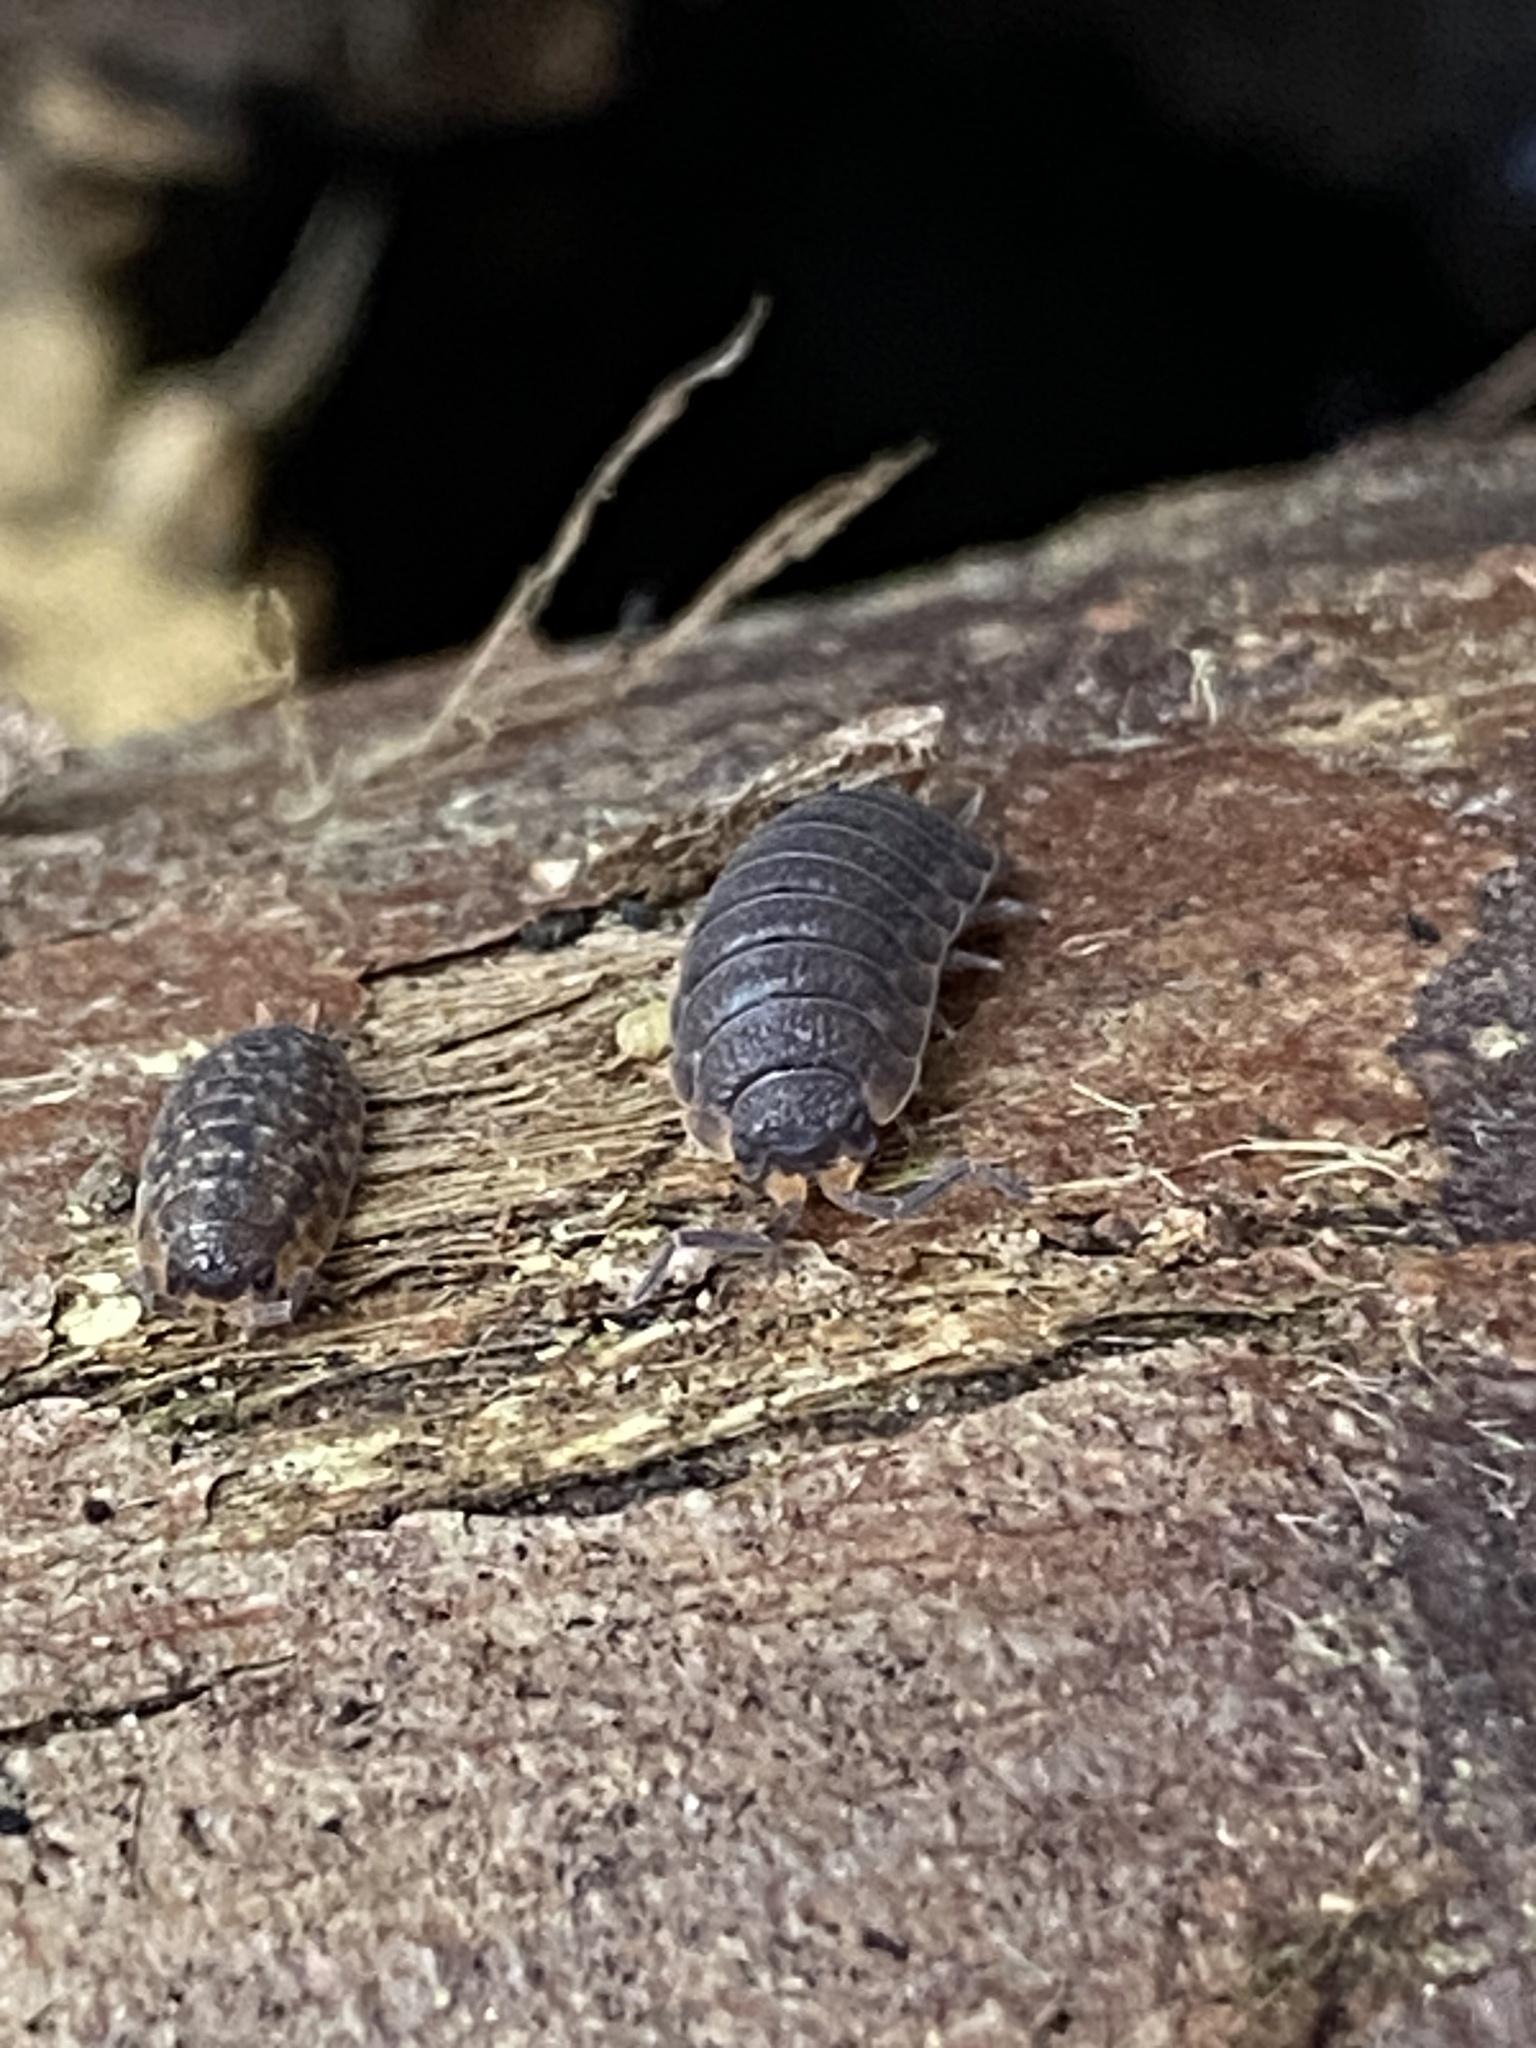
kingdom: Animalia
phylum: Arthropoda
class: Malacostraca
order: Isopoda
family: Porcellionidae
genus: Porcellio
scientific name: Porcellio scaber
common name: Common rough woodlouse
